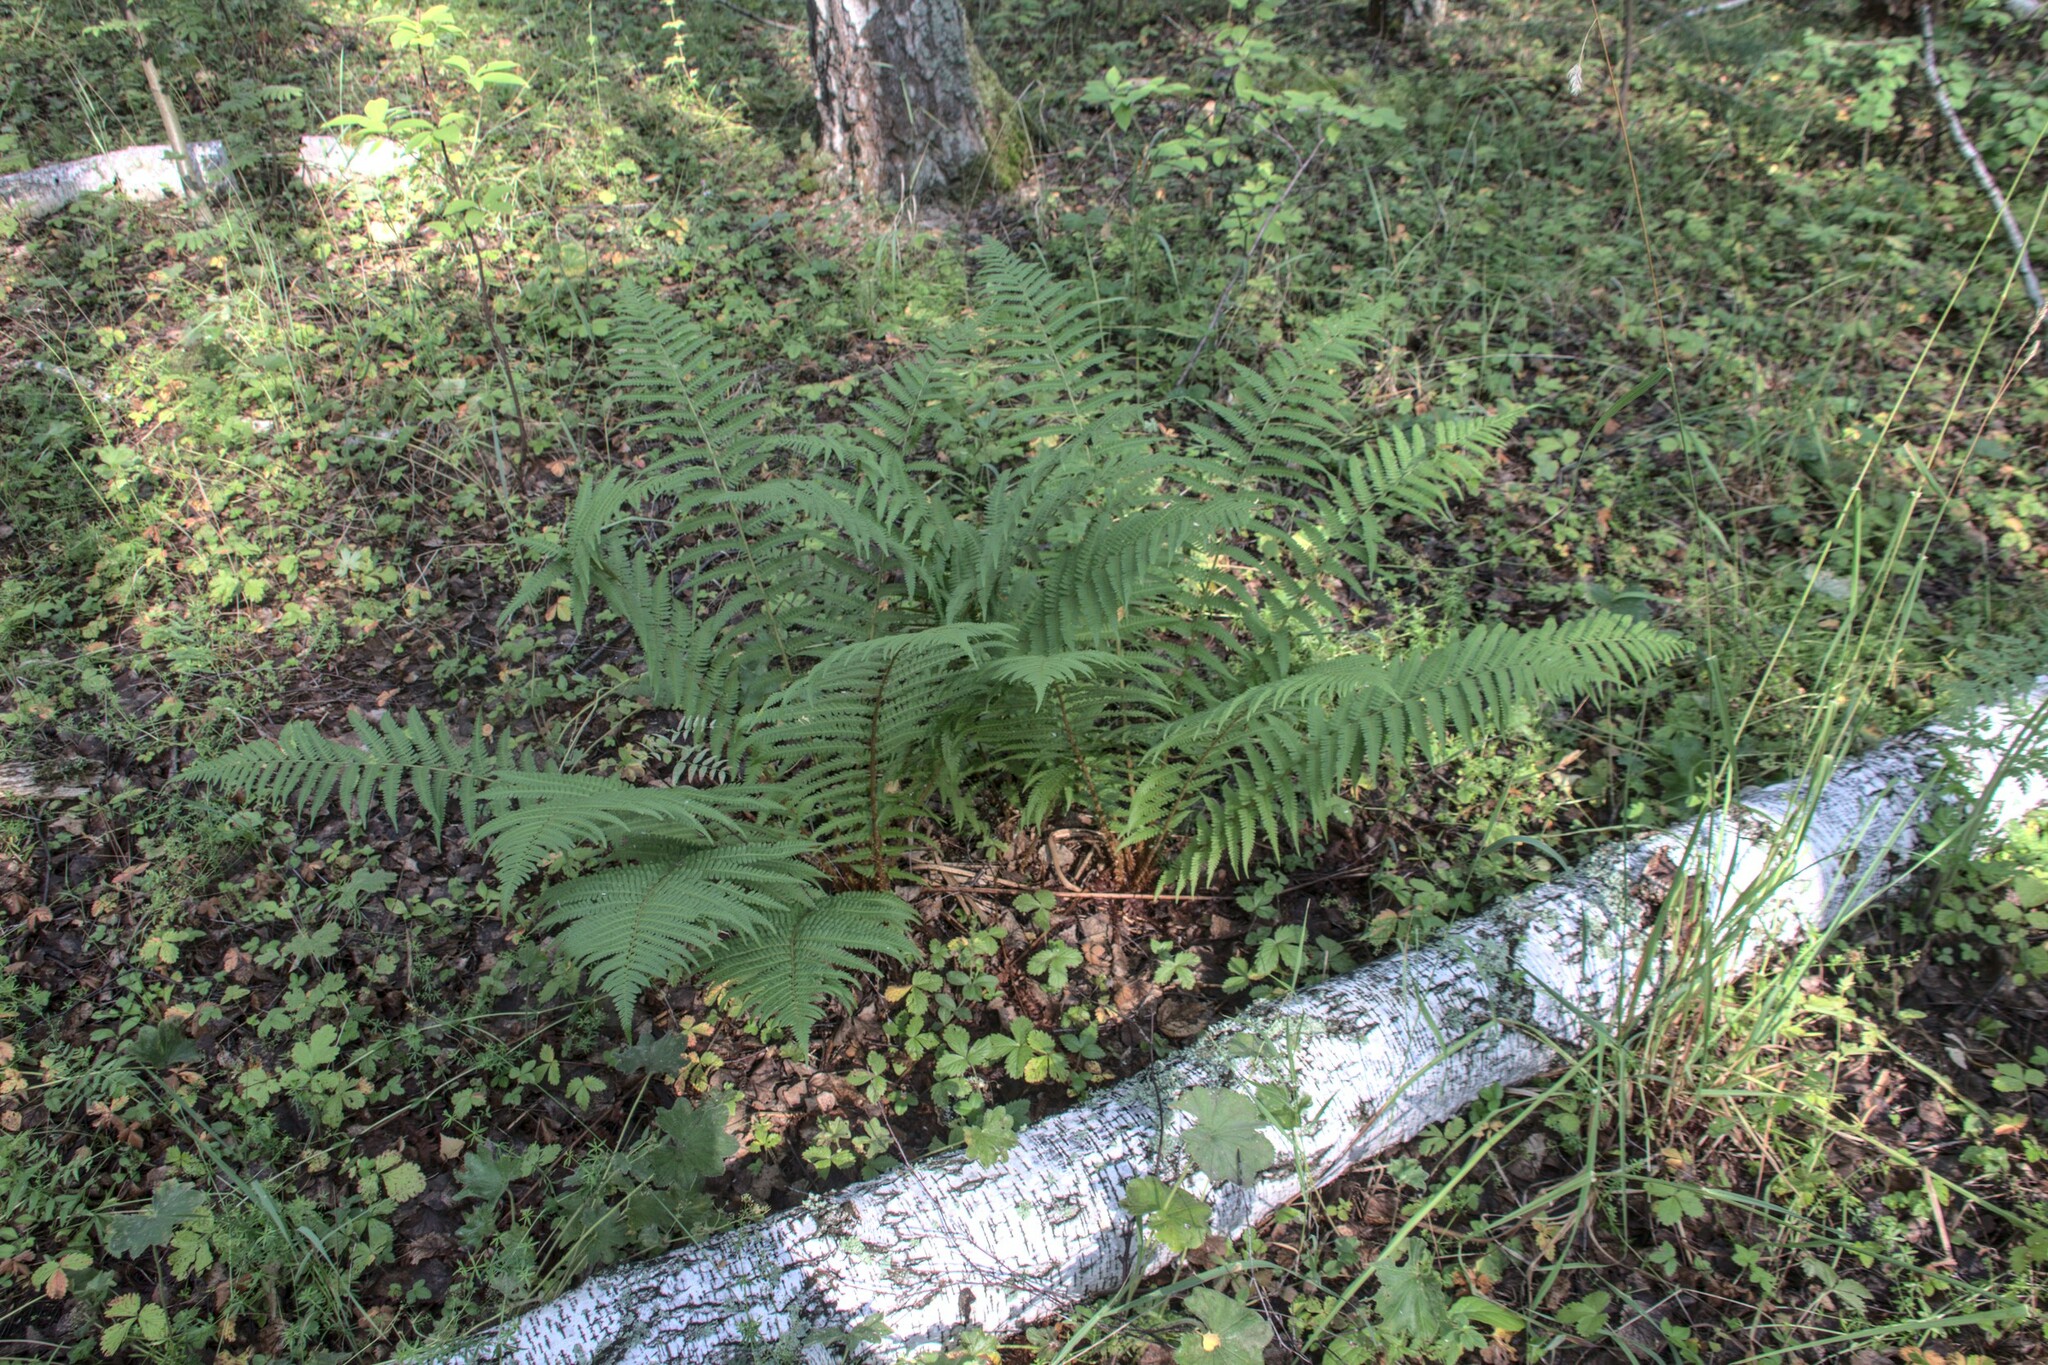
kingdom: Plantae
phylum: Tracheophyta
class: Polypodiopsida
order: Polypodiales
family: Dryopteridaceae
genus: Dryopteris
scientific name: Dryopteris filix-mas
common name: Male fern
